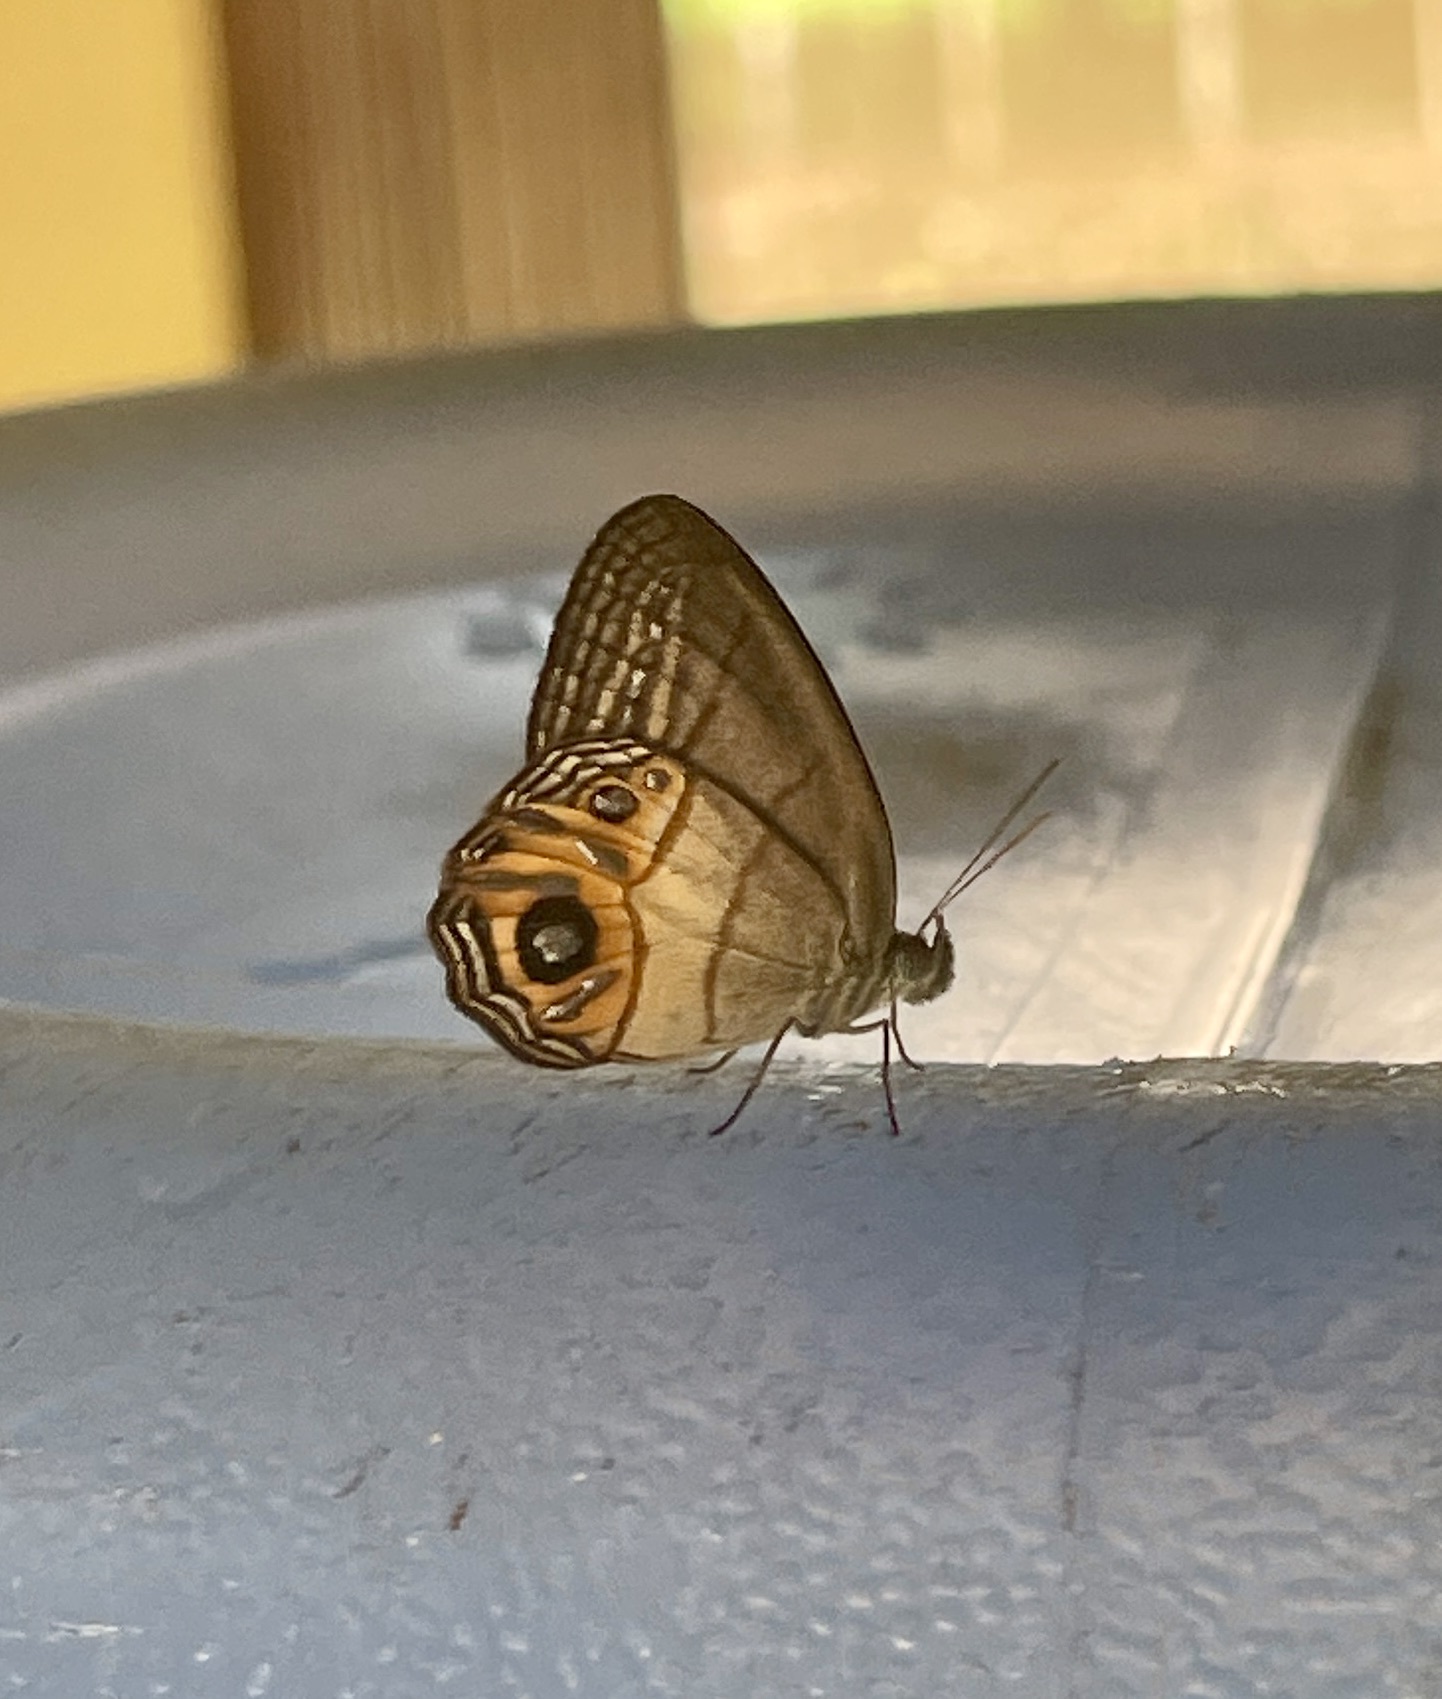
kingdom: Animalia
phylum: Arthropoda
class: Insecta
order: Lepidoptera
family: Nymphalidae
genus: Splendeuptychia
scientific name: Splendeuptychia
